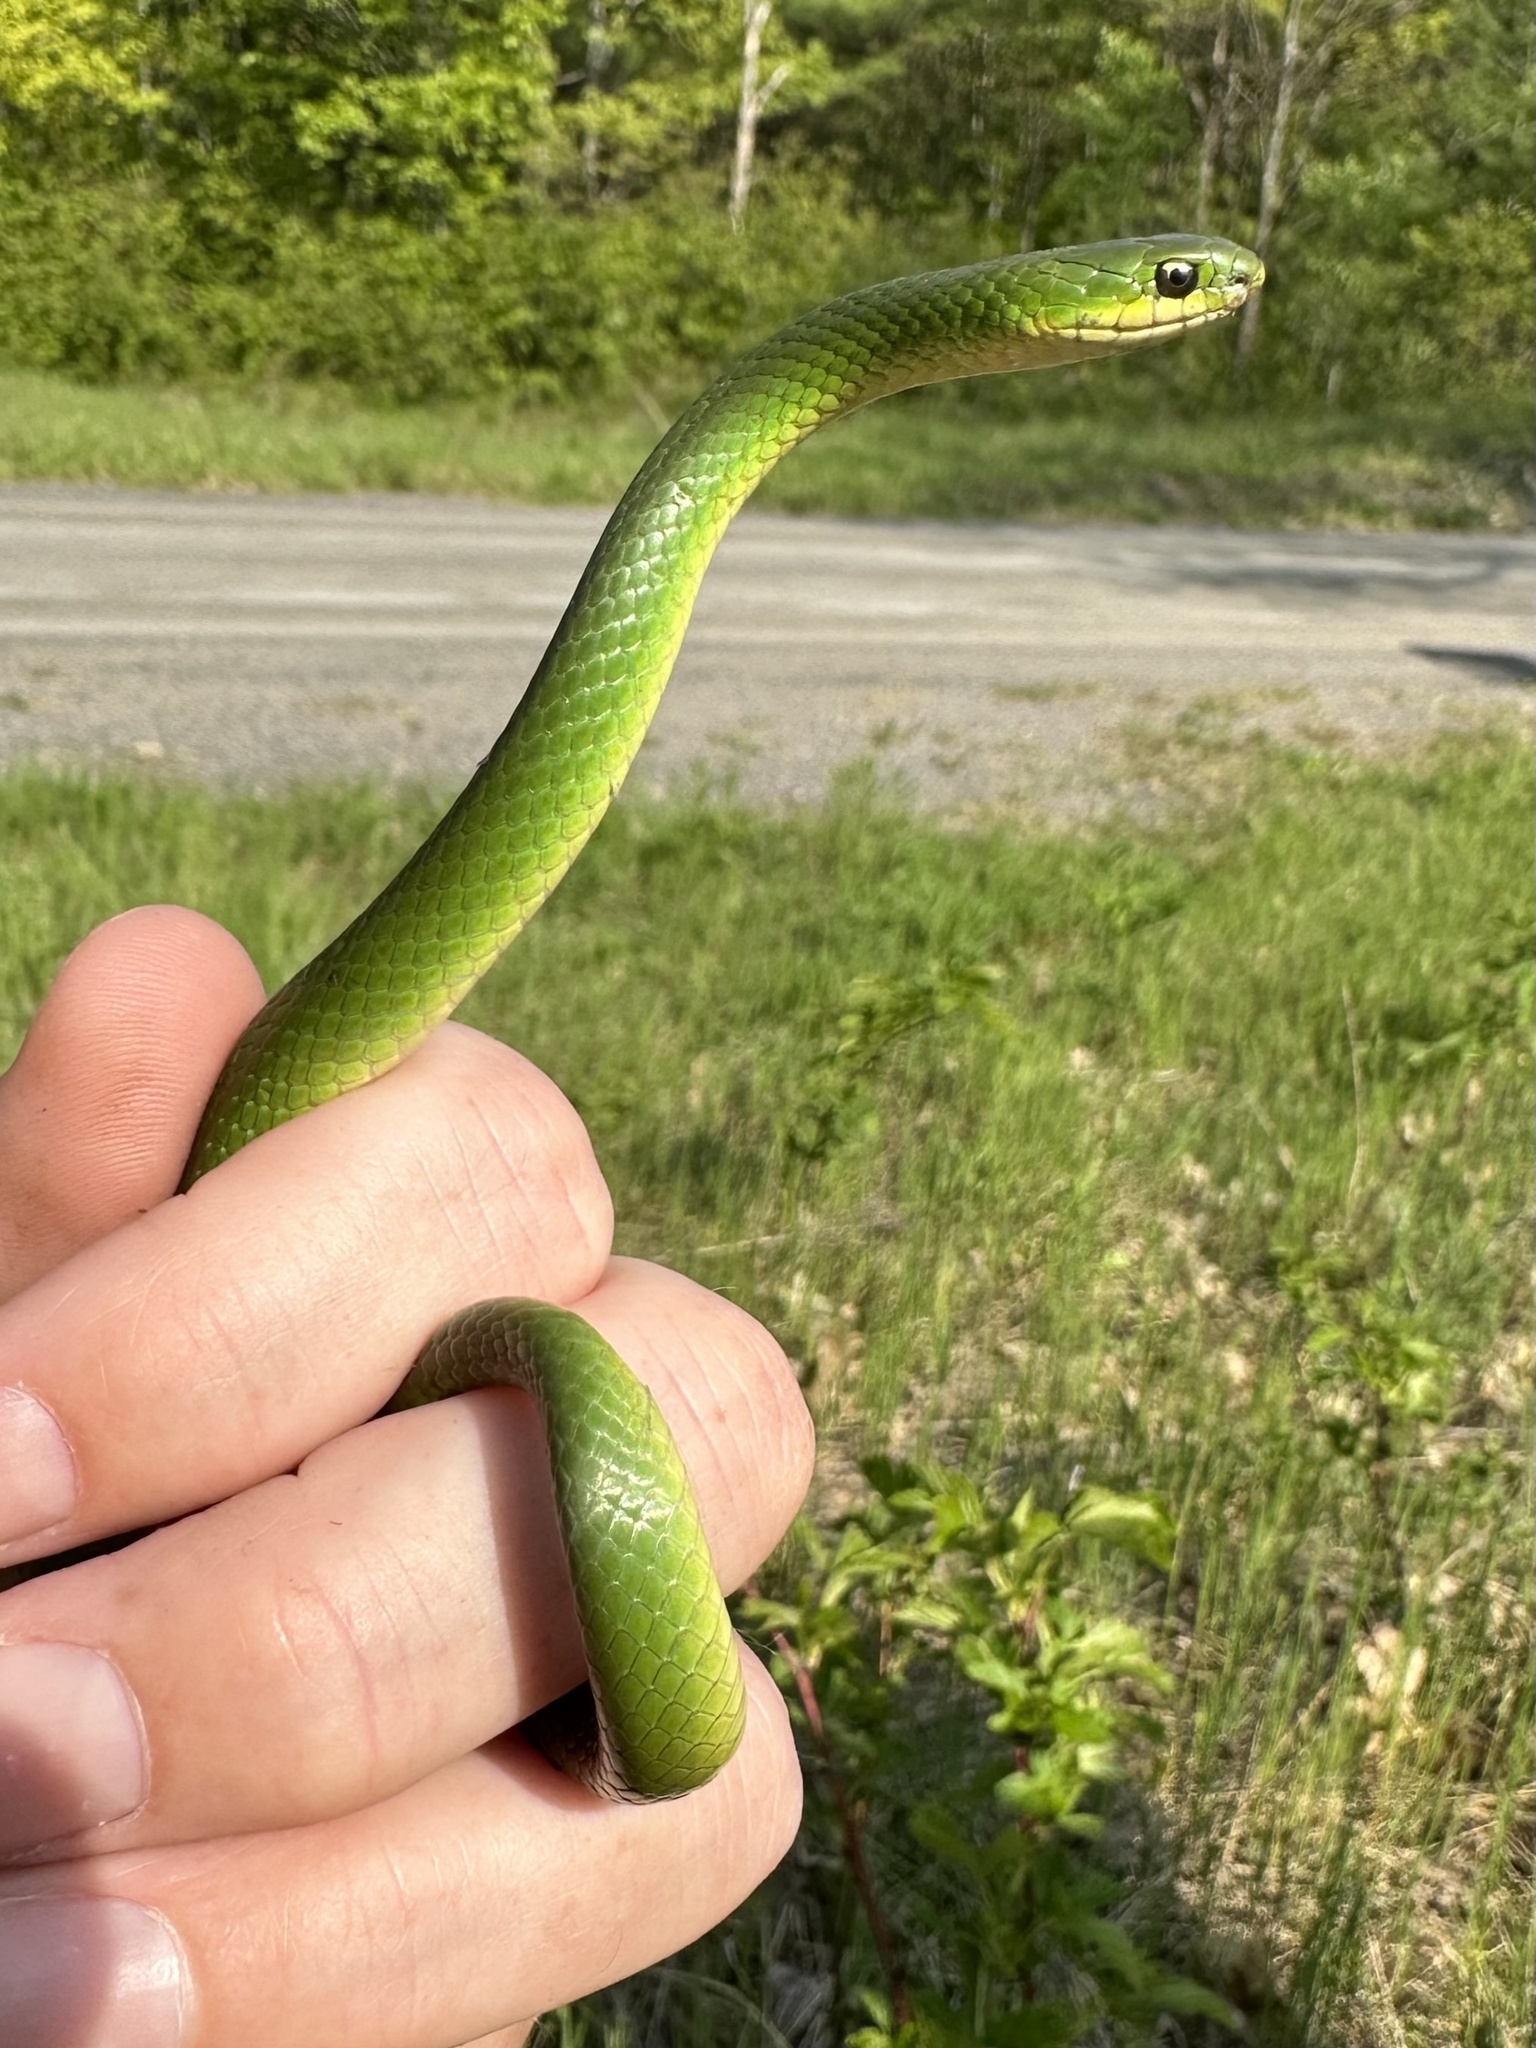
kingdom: Animalia
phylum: Chordata
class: Squamata
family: Colubridae
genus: Opheodrys
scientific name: Opheodrys vernalis
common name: Smooth green snake
